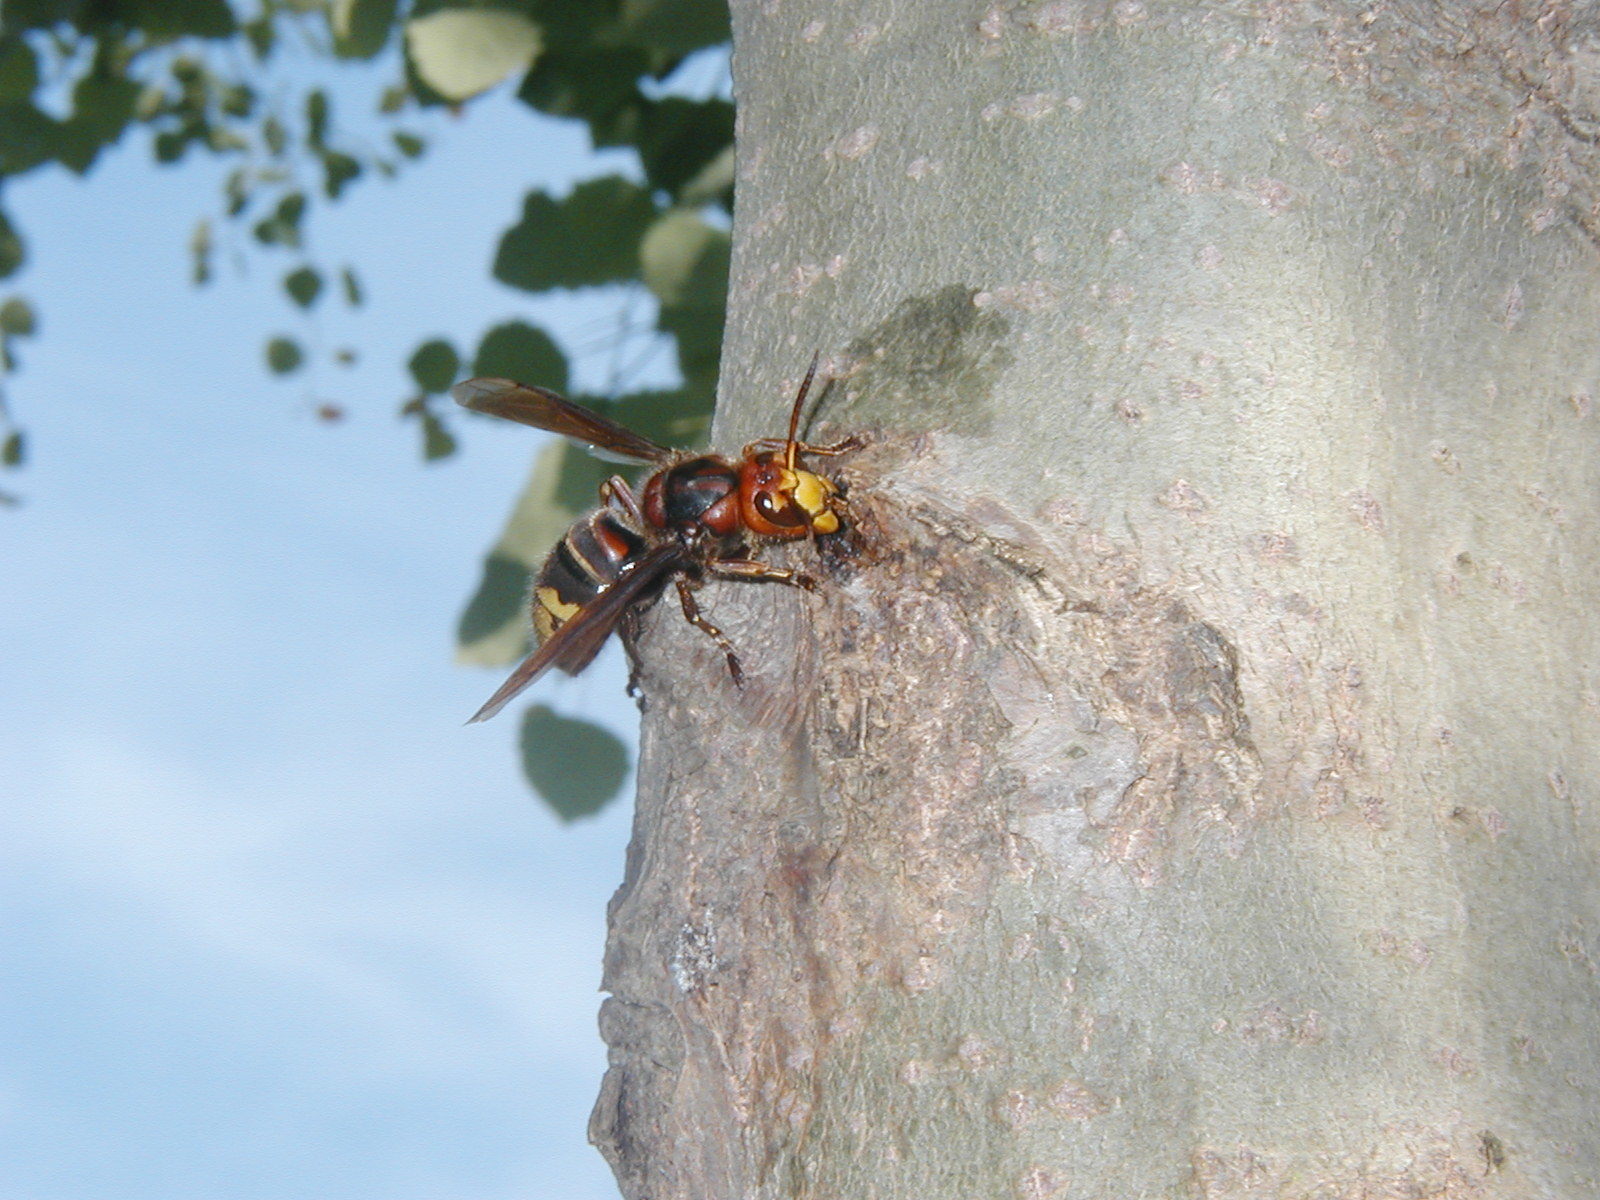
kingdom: Animalia
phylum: Arthropoda
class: Insecta
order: Hymenoptera
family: Vespidae
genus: Vespa
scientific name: Vespa crabro
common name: Hornet
